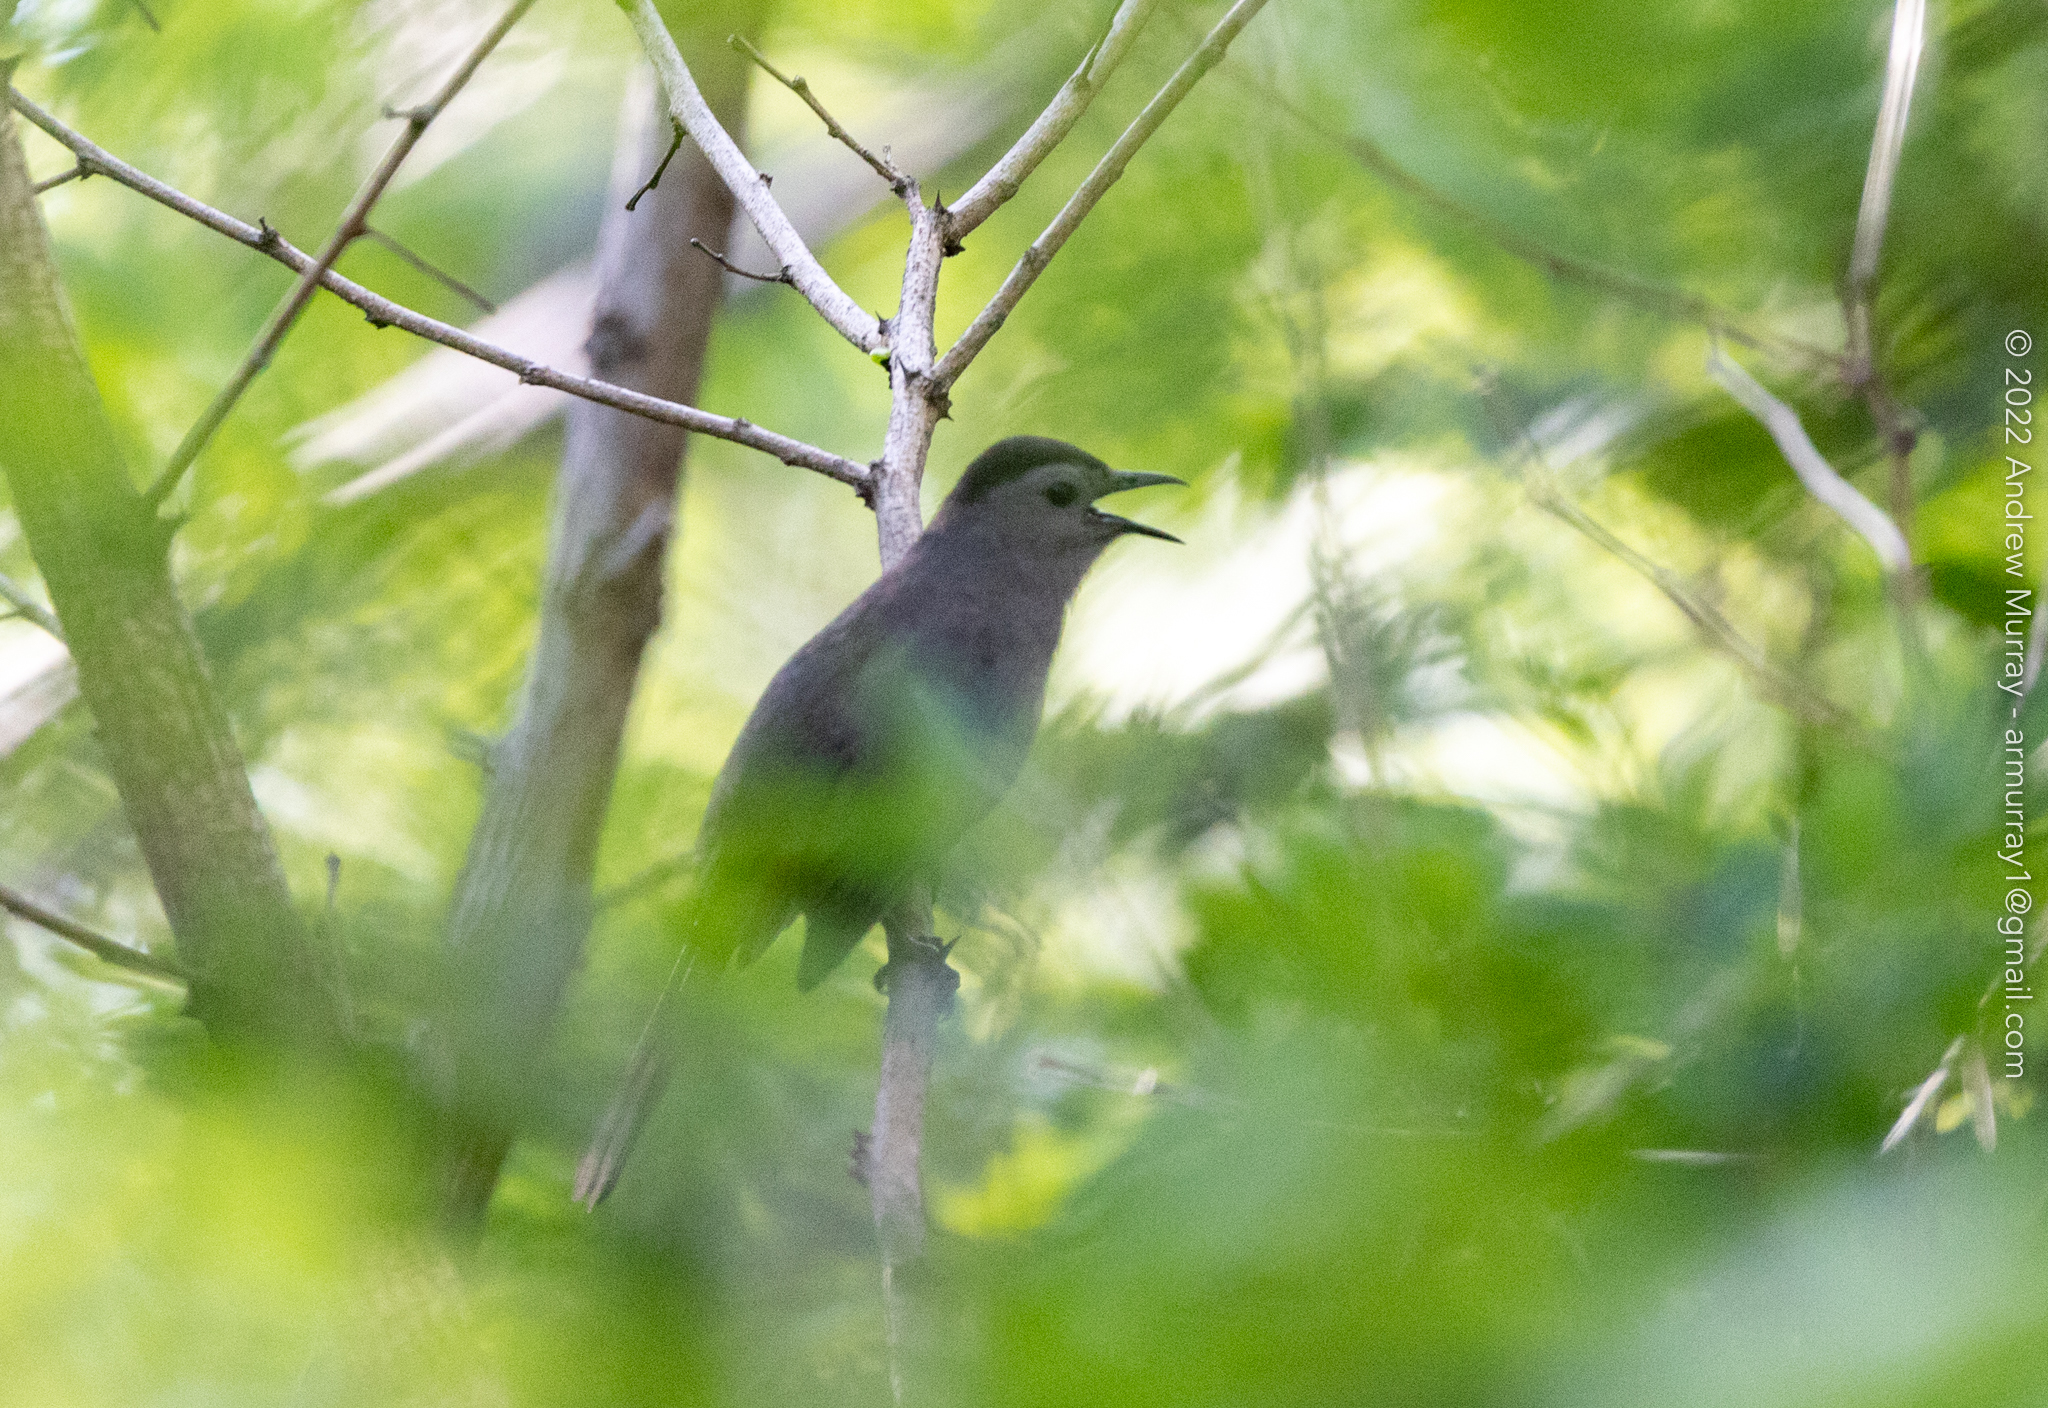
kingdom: Animalia
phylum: Chordata
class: Aves
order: Passeriformes
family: Mimidae
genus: Dumetella
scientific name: Dumetella carolinensis
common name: Gray catbird
